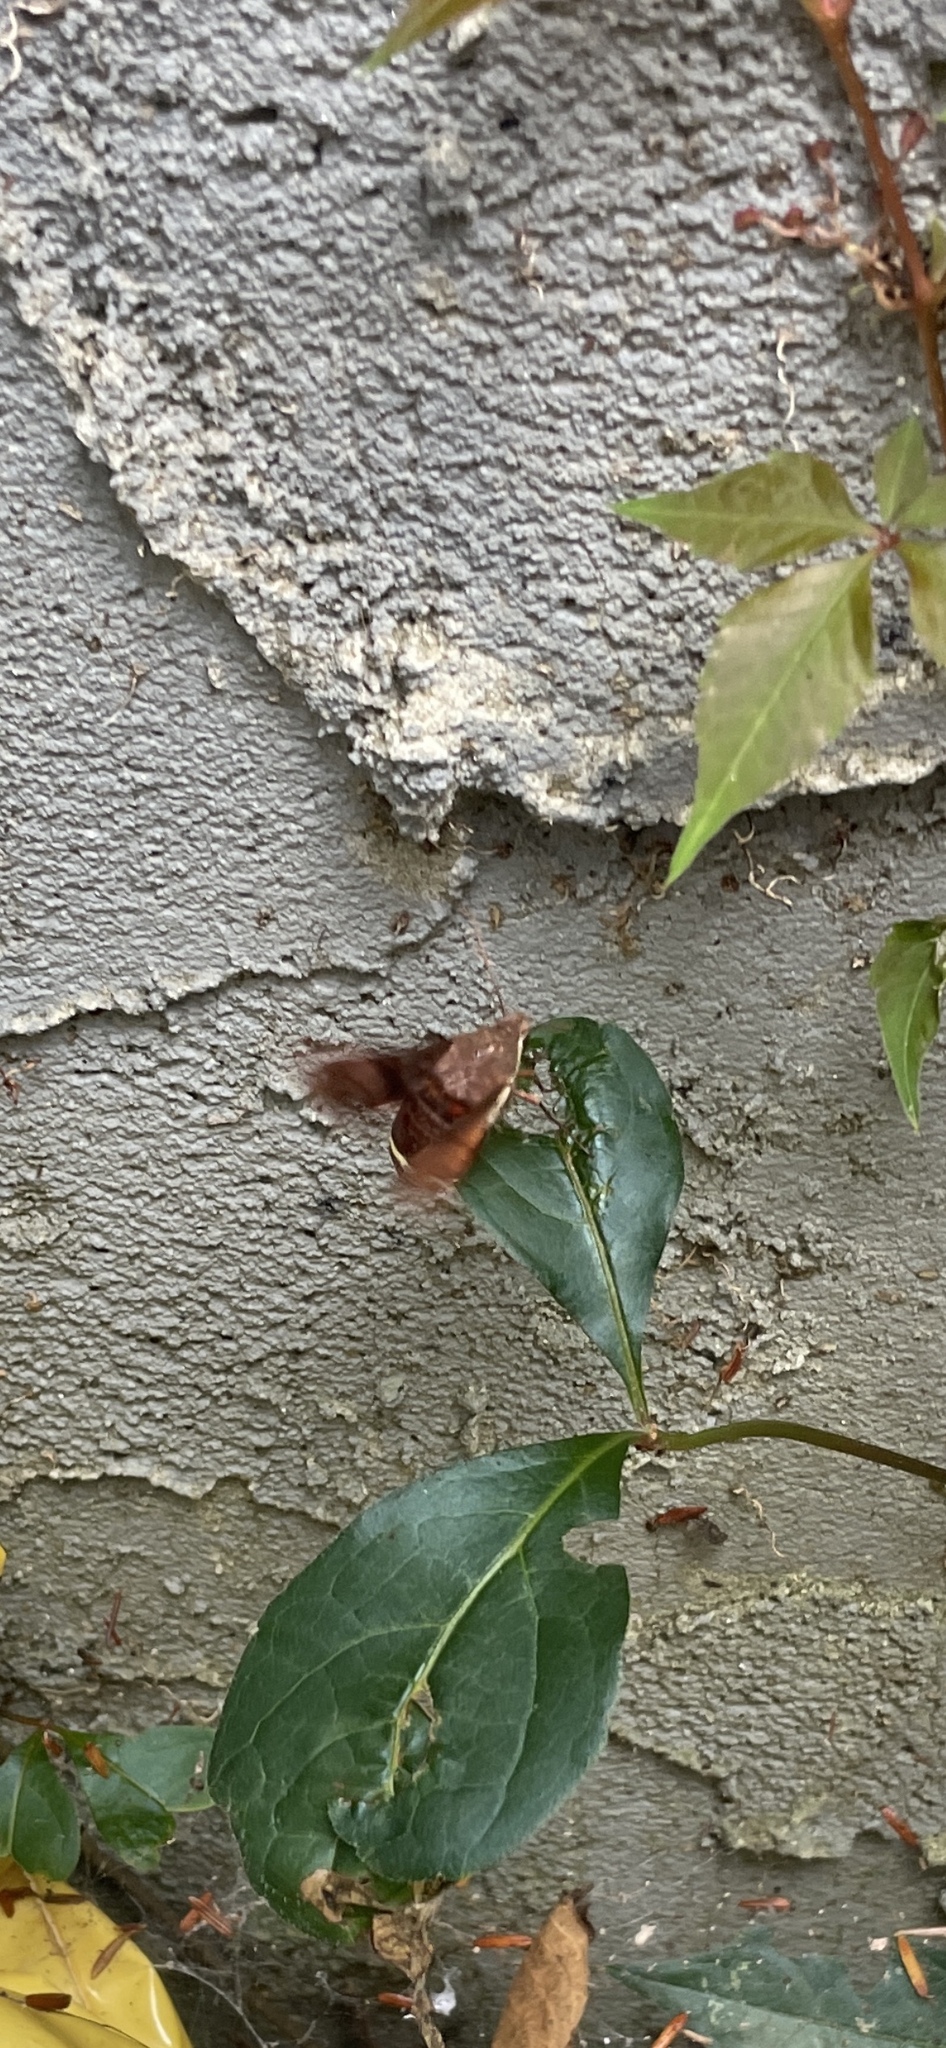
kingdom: Animalia
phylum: Arthropoda
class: Insecta
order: Lepidoptera
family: Sphingidae
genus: Amphion
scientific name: Amphion floridensis
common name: Nessus sphinx
